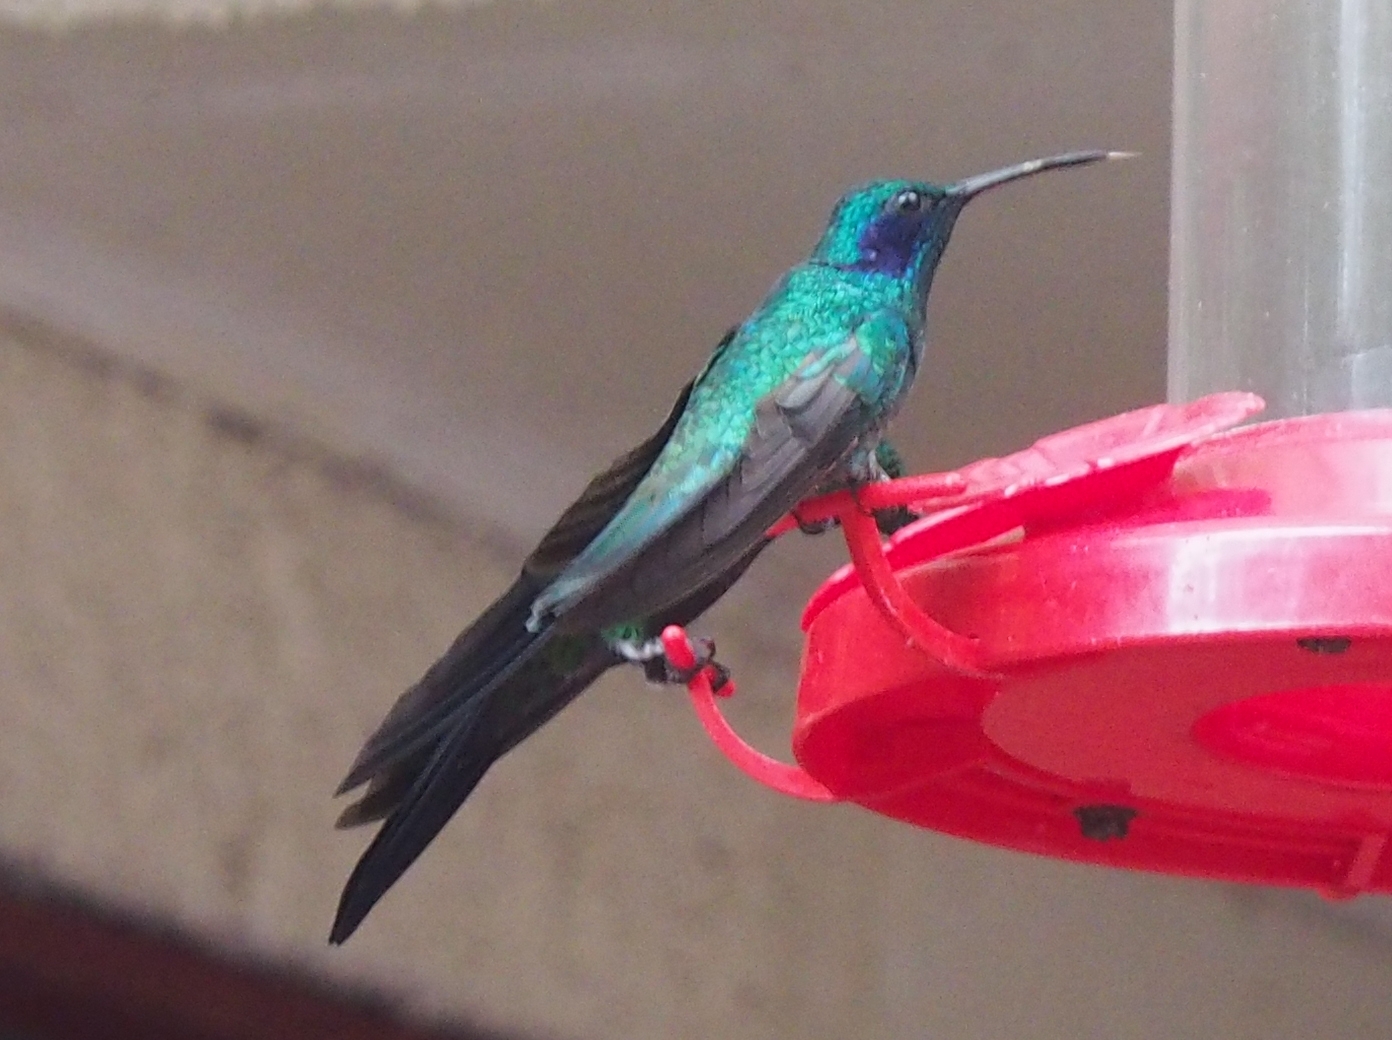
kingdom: Animalia
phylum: Chordata
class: Aves
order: Apodiformes
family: Trochilidae
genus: Colibri
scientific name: Colibri cyanotus
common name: Lesser violetear
